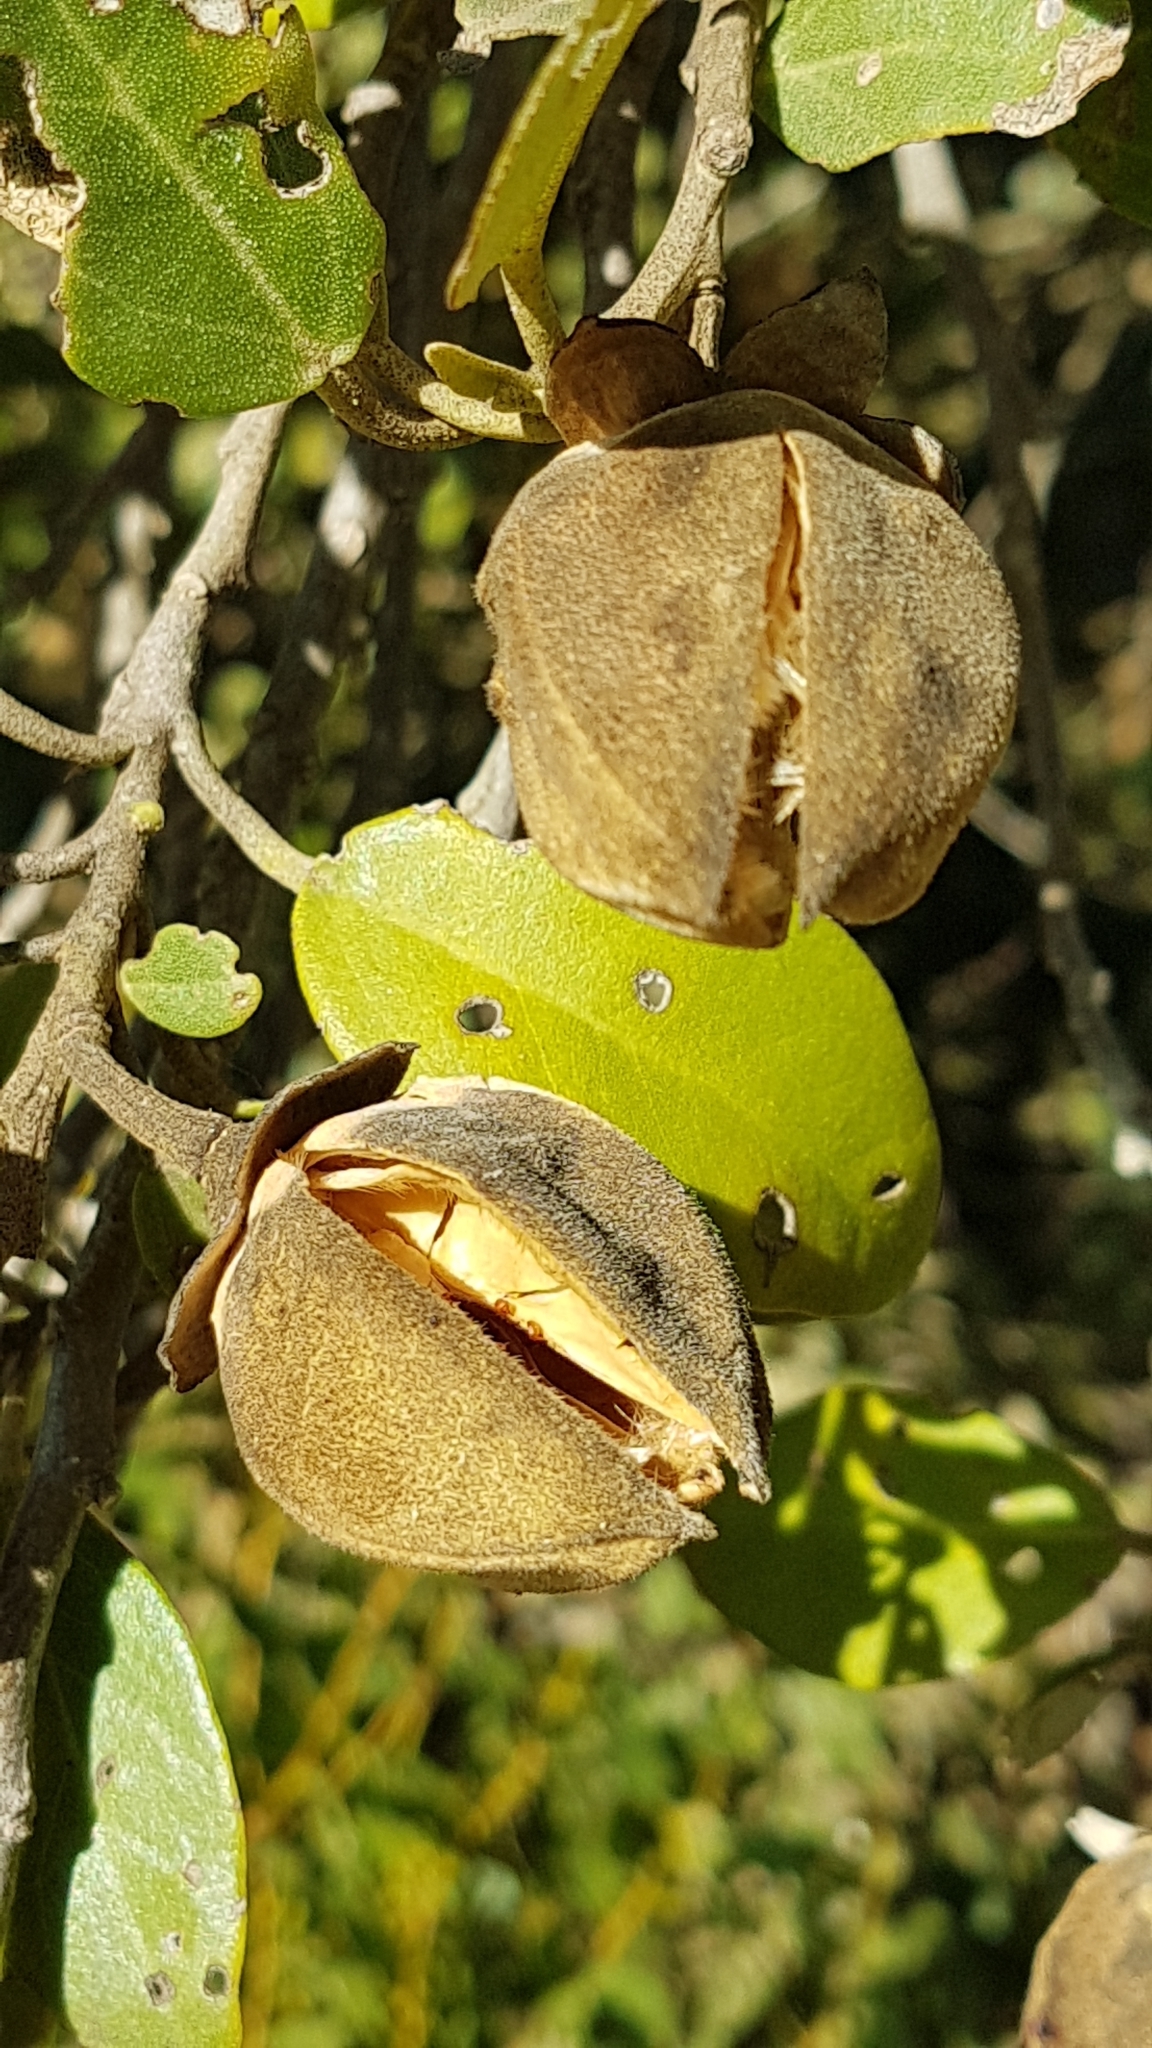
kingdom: Plantae
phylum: Tracheophyta
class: Magnoliopsida
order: Malvales
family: Malvaceae
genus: Lagunaria
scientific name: Lagunaria patersonia
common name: Cow itch tree
